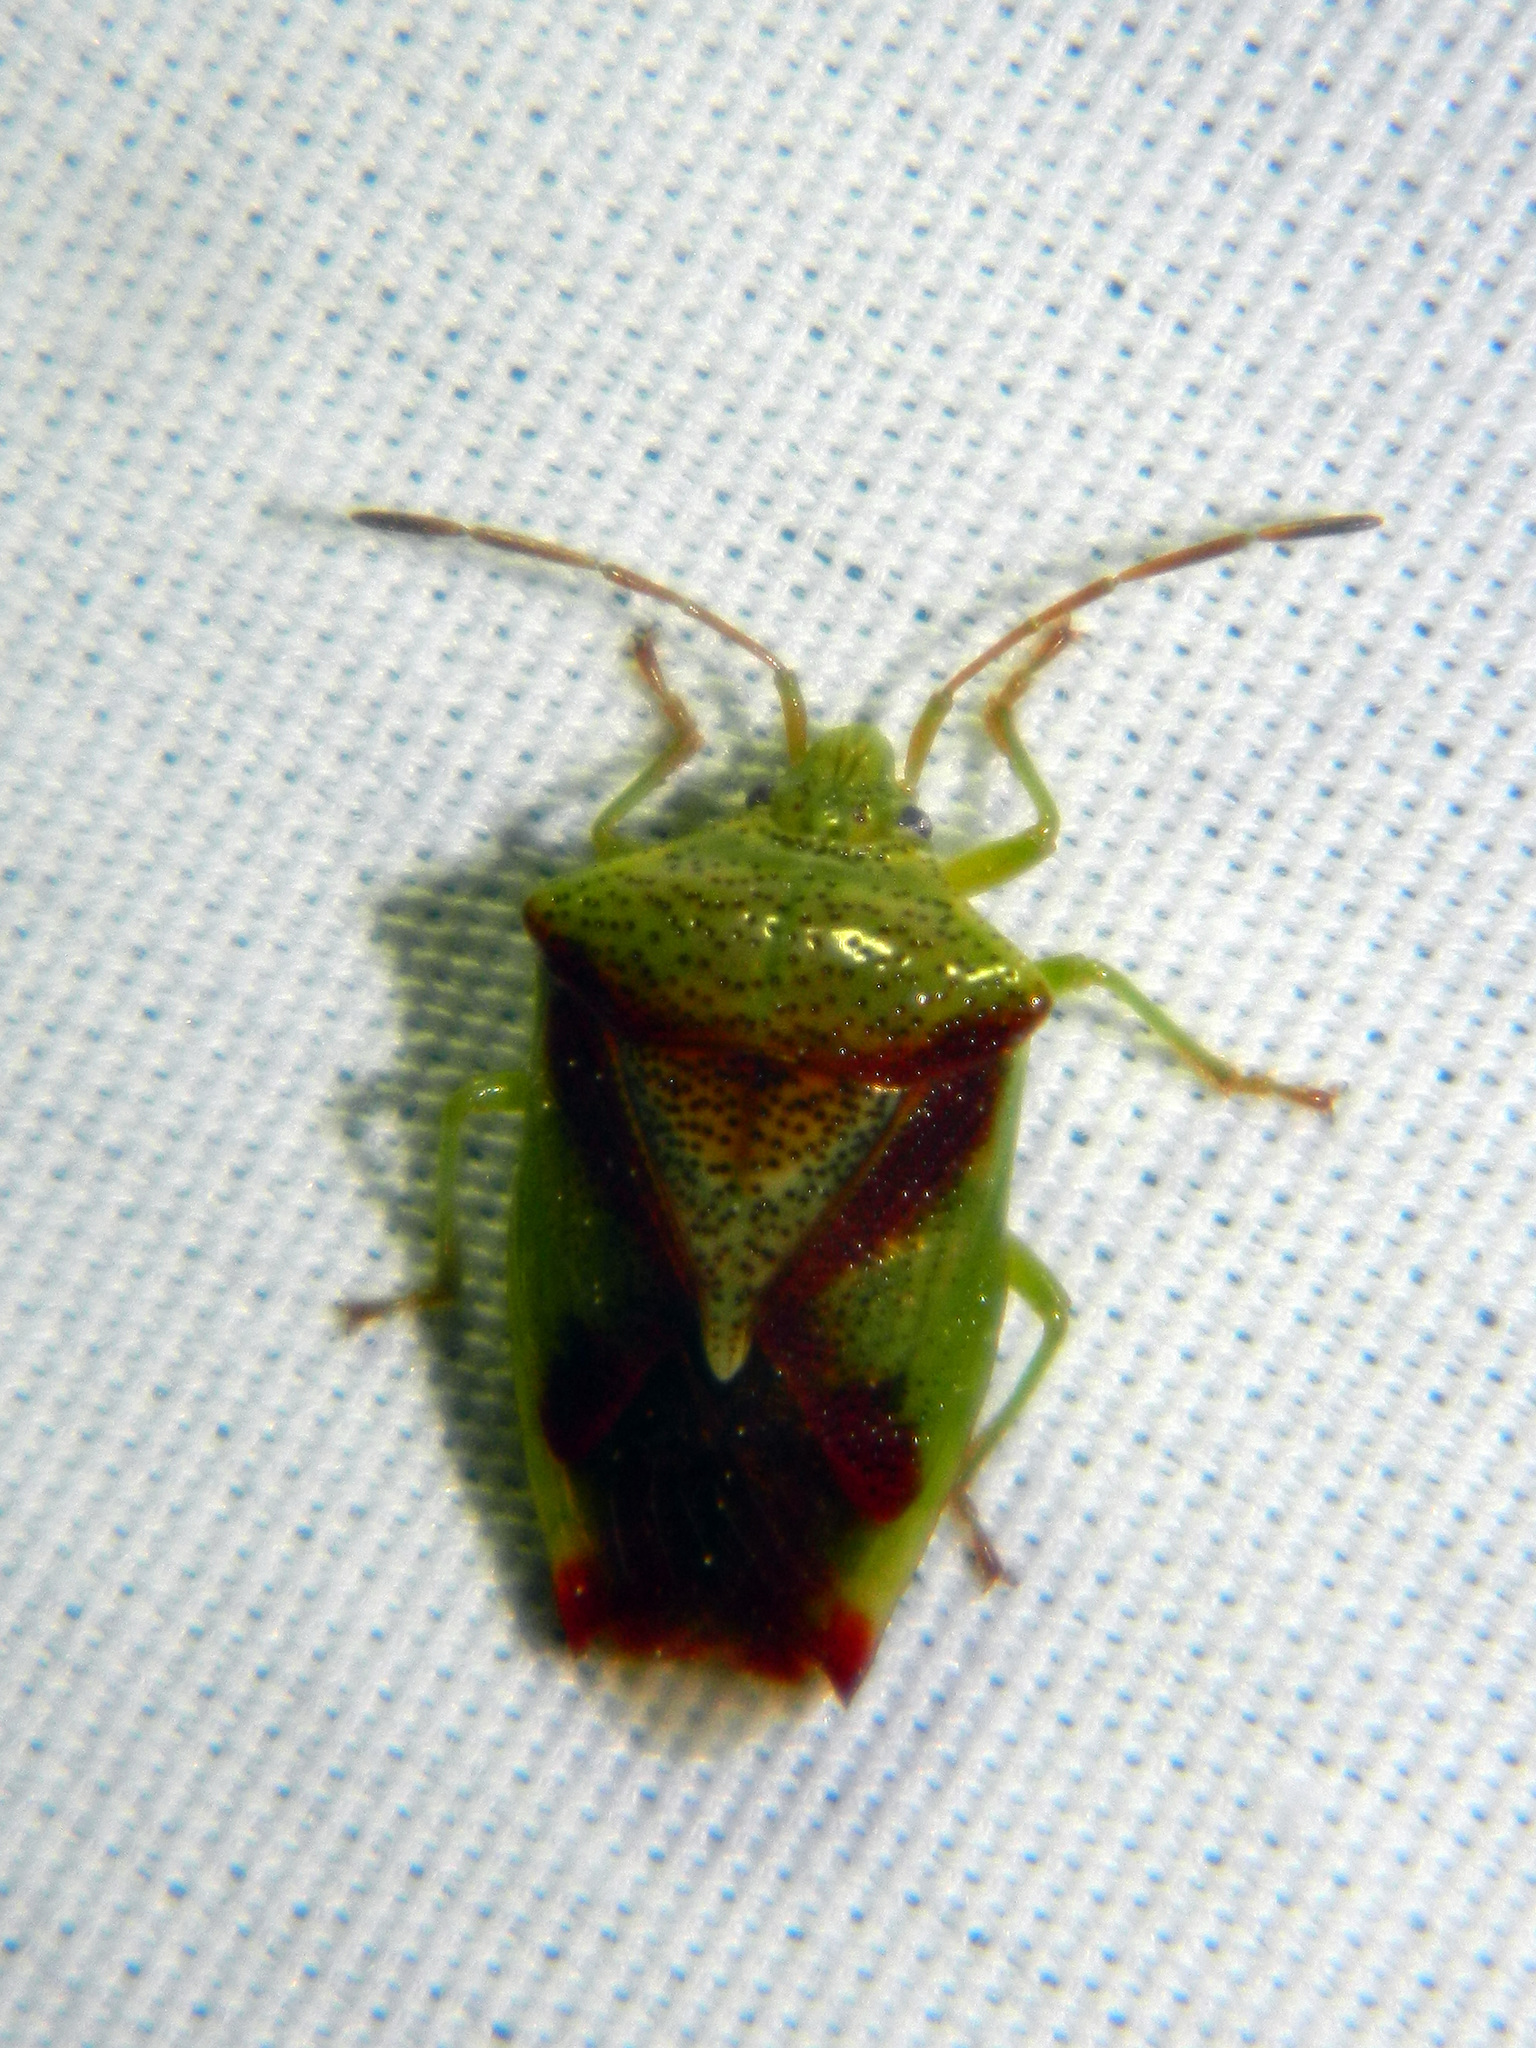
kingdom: Animalia
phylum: Arthropoda
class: Insecta
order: Hemiptera
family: Acanthosomatidae
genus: Elasmostethus
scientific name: Elasmostethus cruciatus
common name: Red-cross shield bug
